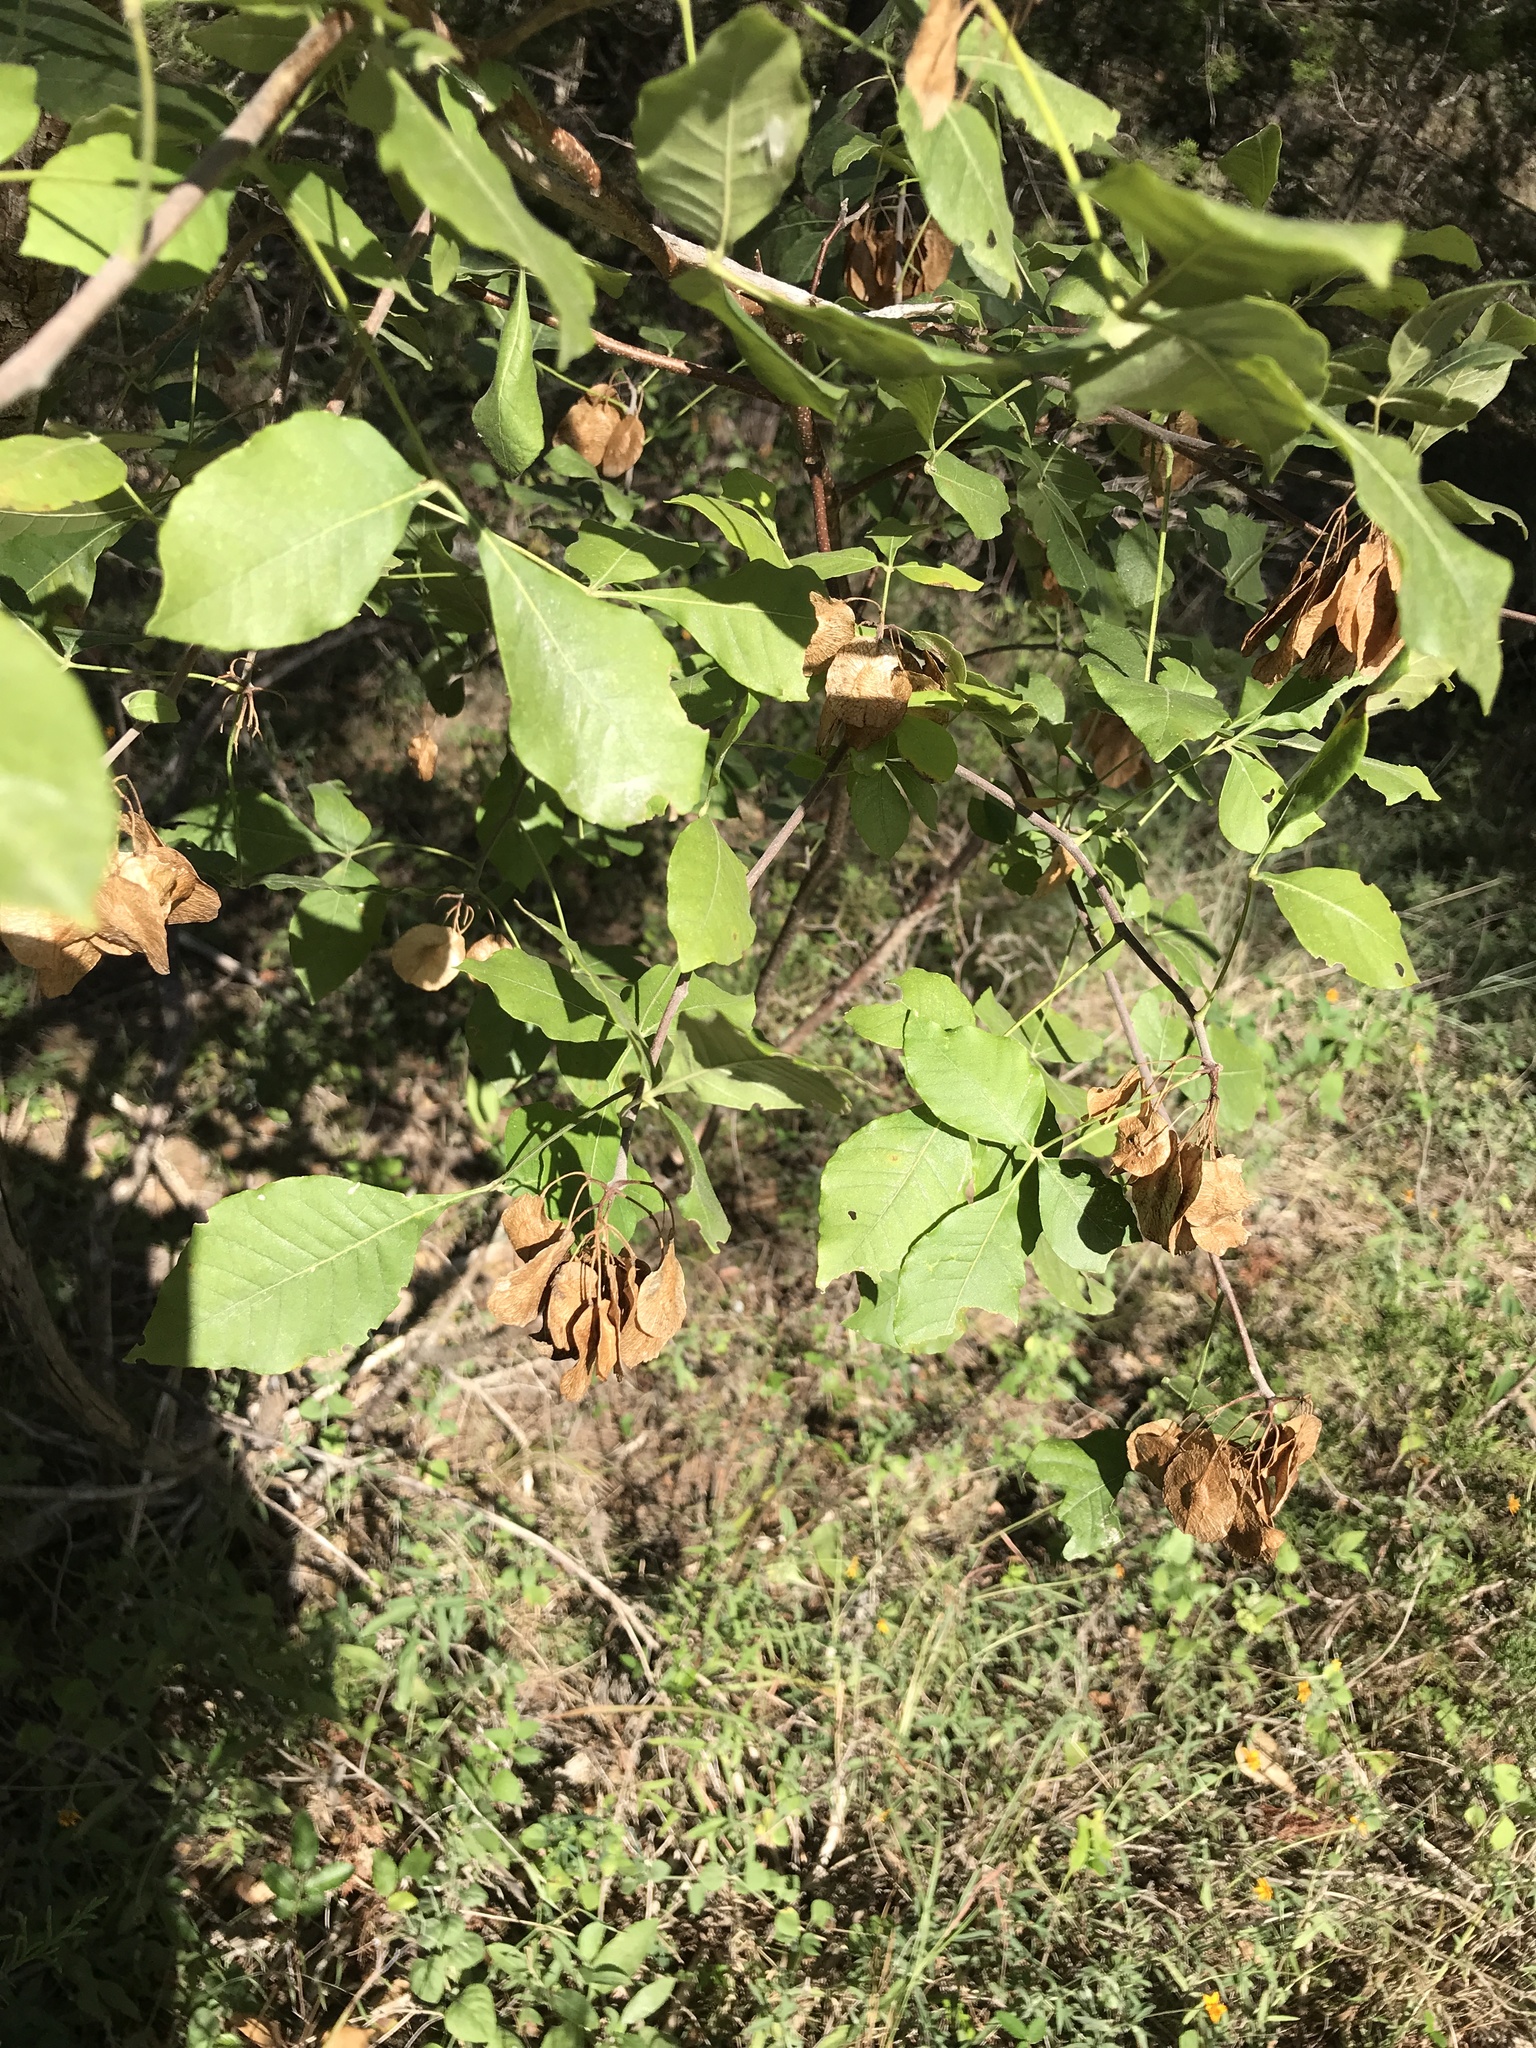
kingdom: Plantae
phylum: Tracheophyta
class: Magnoliopsida
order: Sapindales
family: Rutaceae
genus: Ptelea
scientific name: Ptelea trifoliata
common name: Common hop-tree
